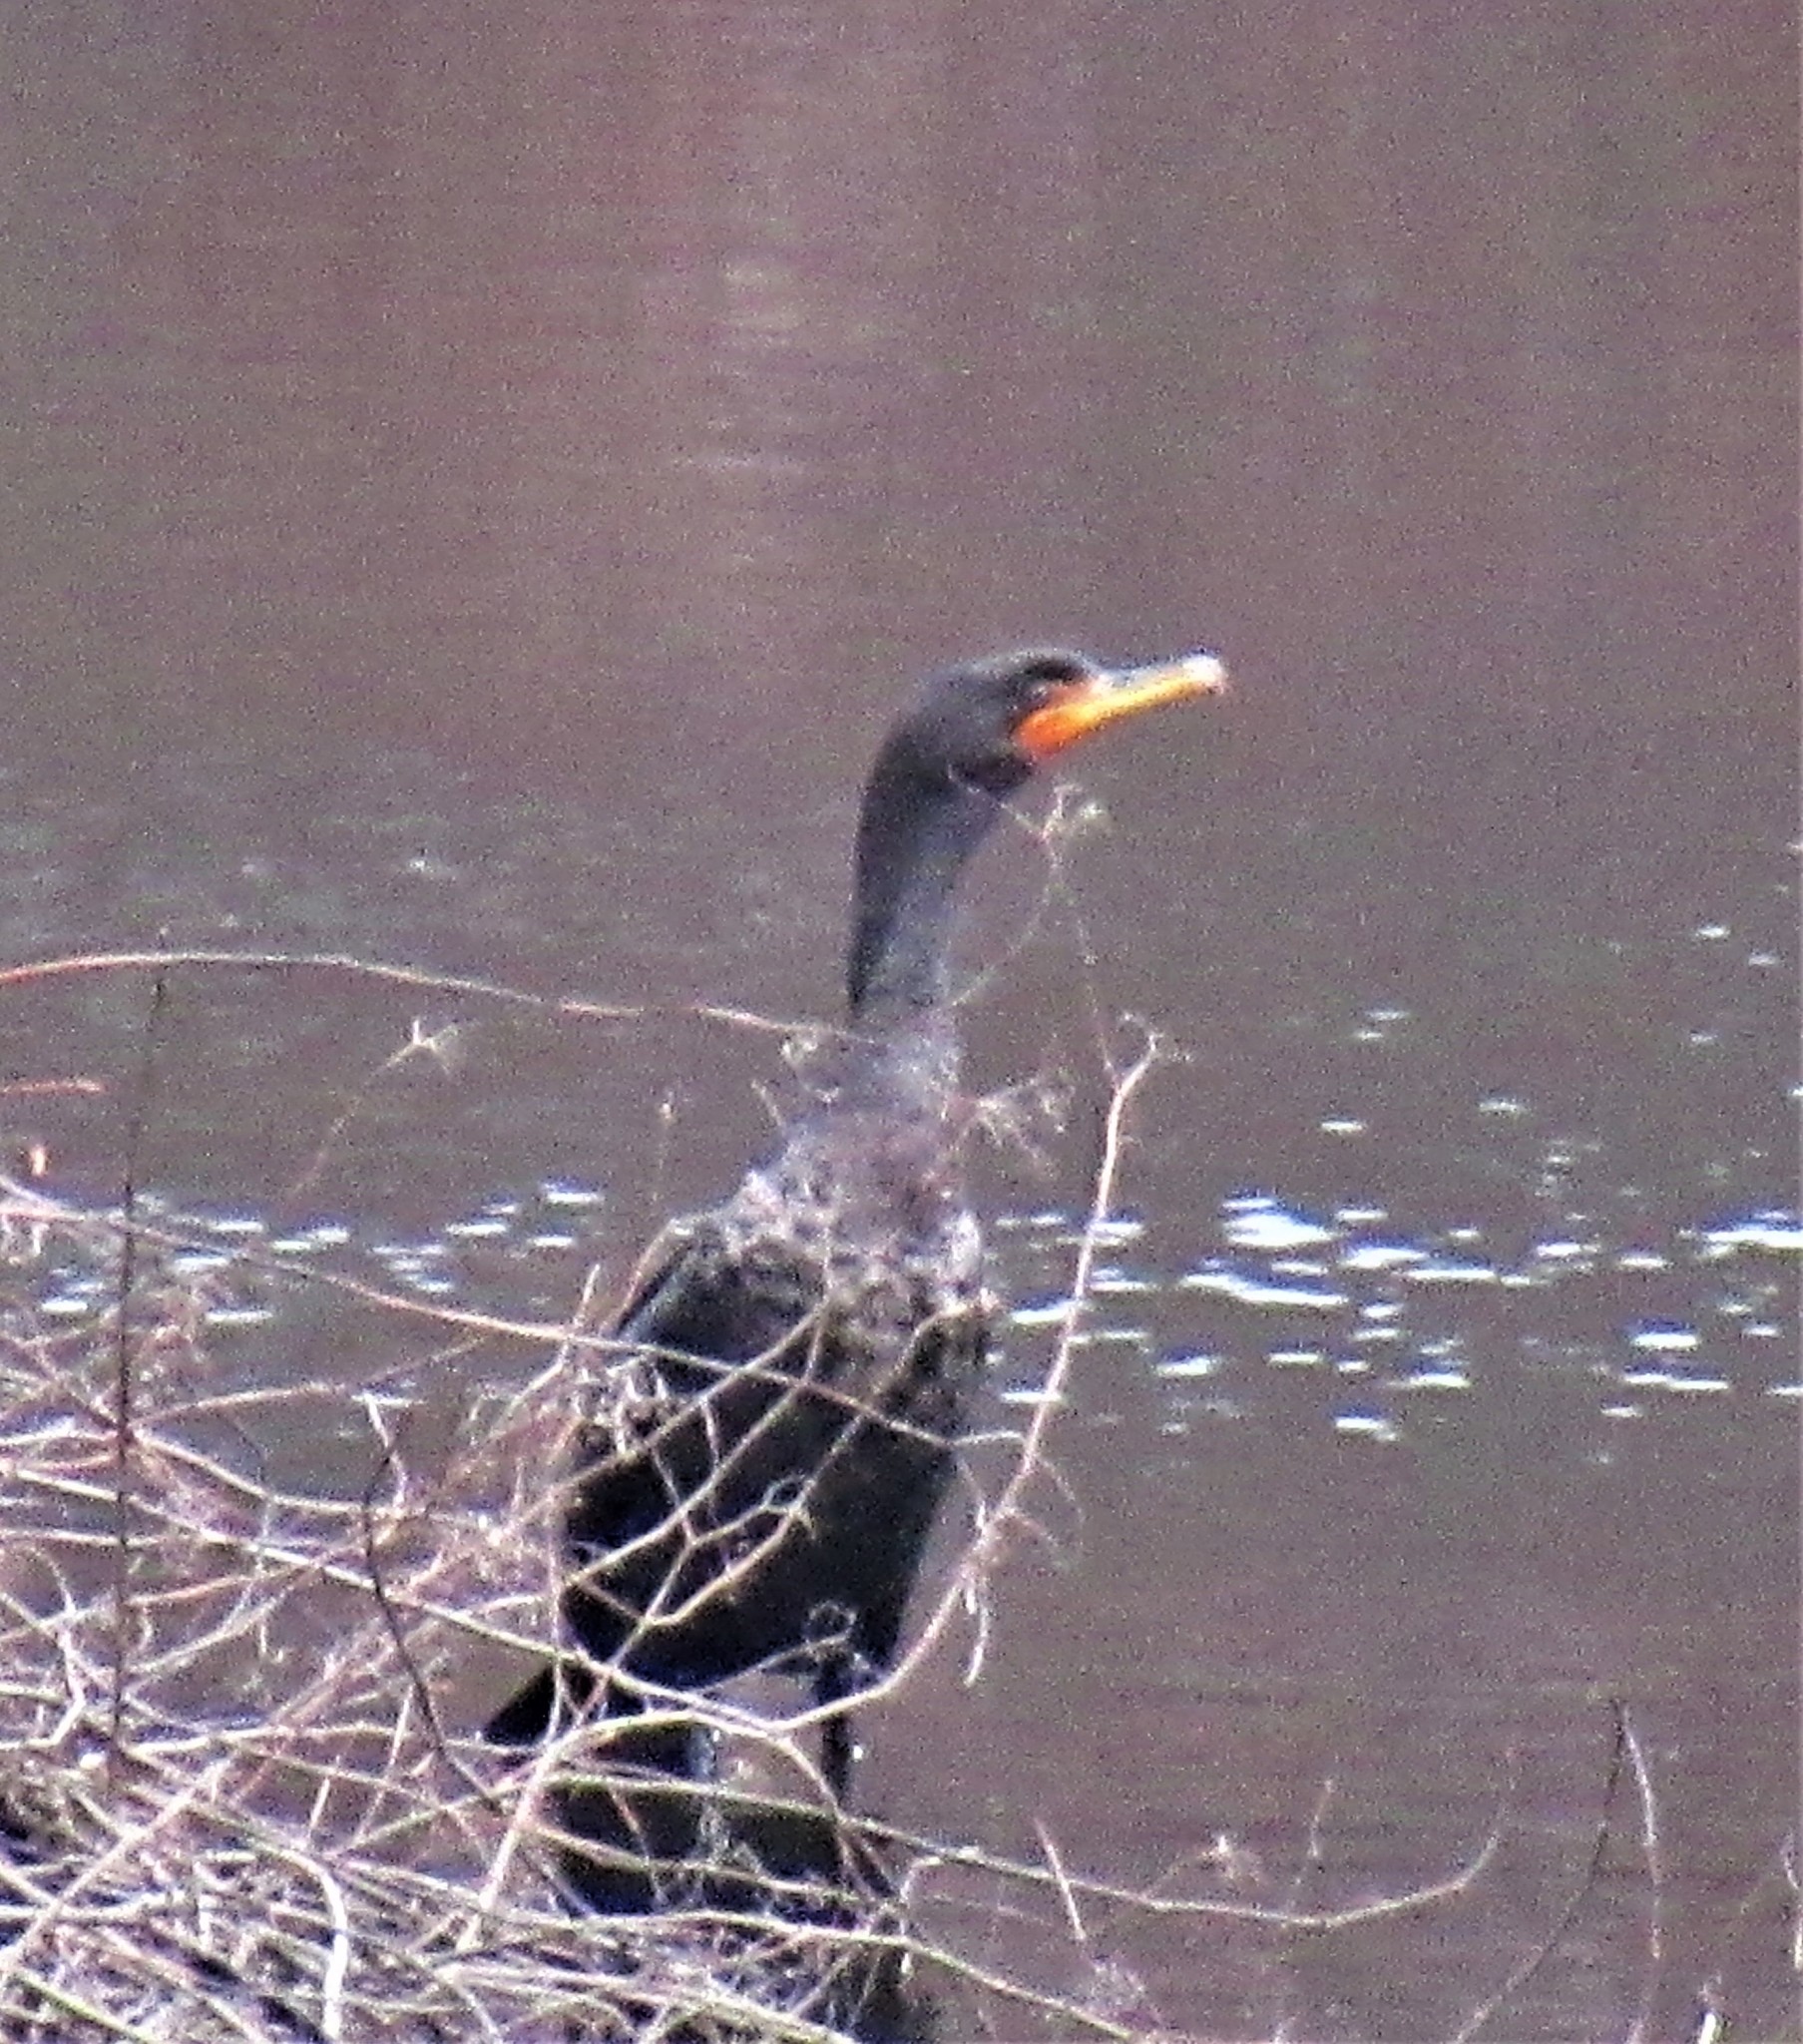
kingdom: Animalia
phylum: Chordata
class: Aves
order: Suliformes
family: Phalacrocoracidae
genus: Phalacrocorax
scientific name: Phalacrocorax auritus
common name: Double-crested cormorant
